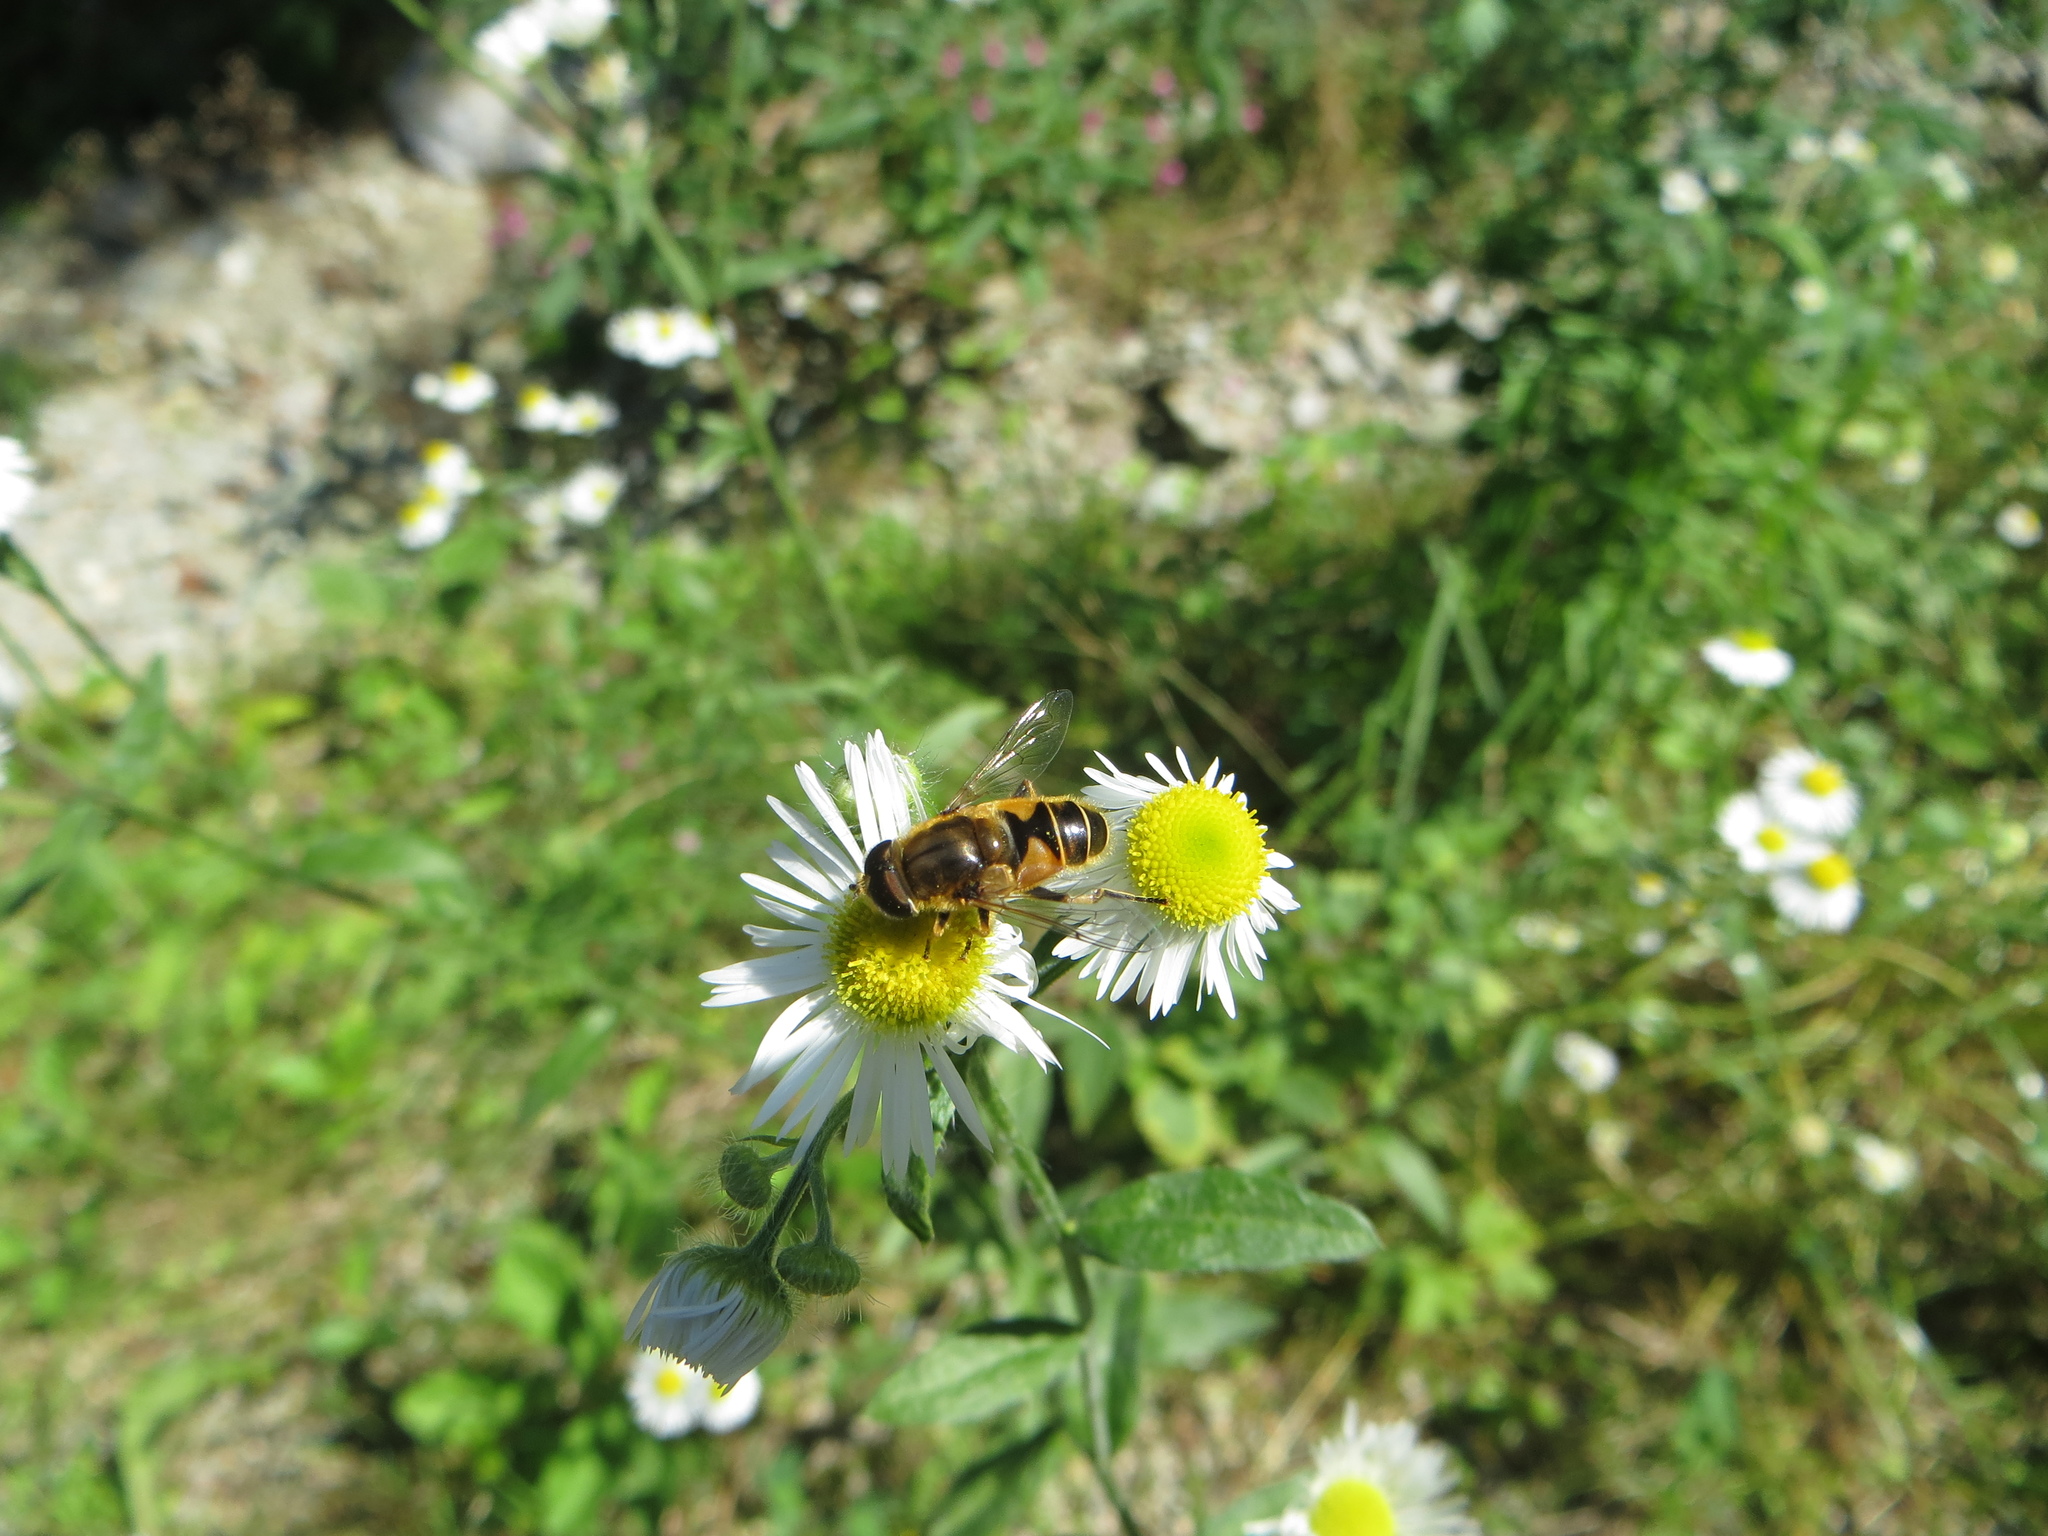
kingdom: Animalia
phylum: Arthropoda
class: Insecta
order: Diptera
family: Syrphidae
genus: Eristalis
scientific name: Eristalis nemorum
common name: Orange-spined drone fly
